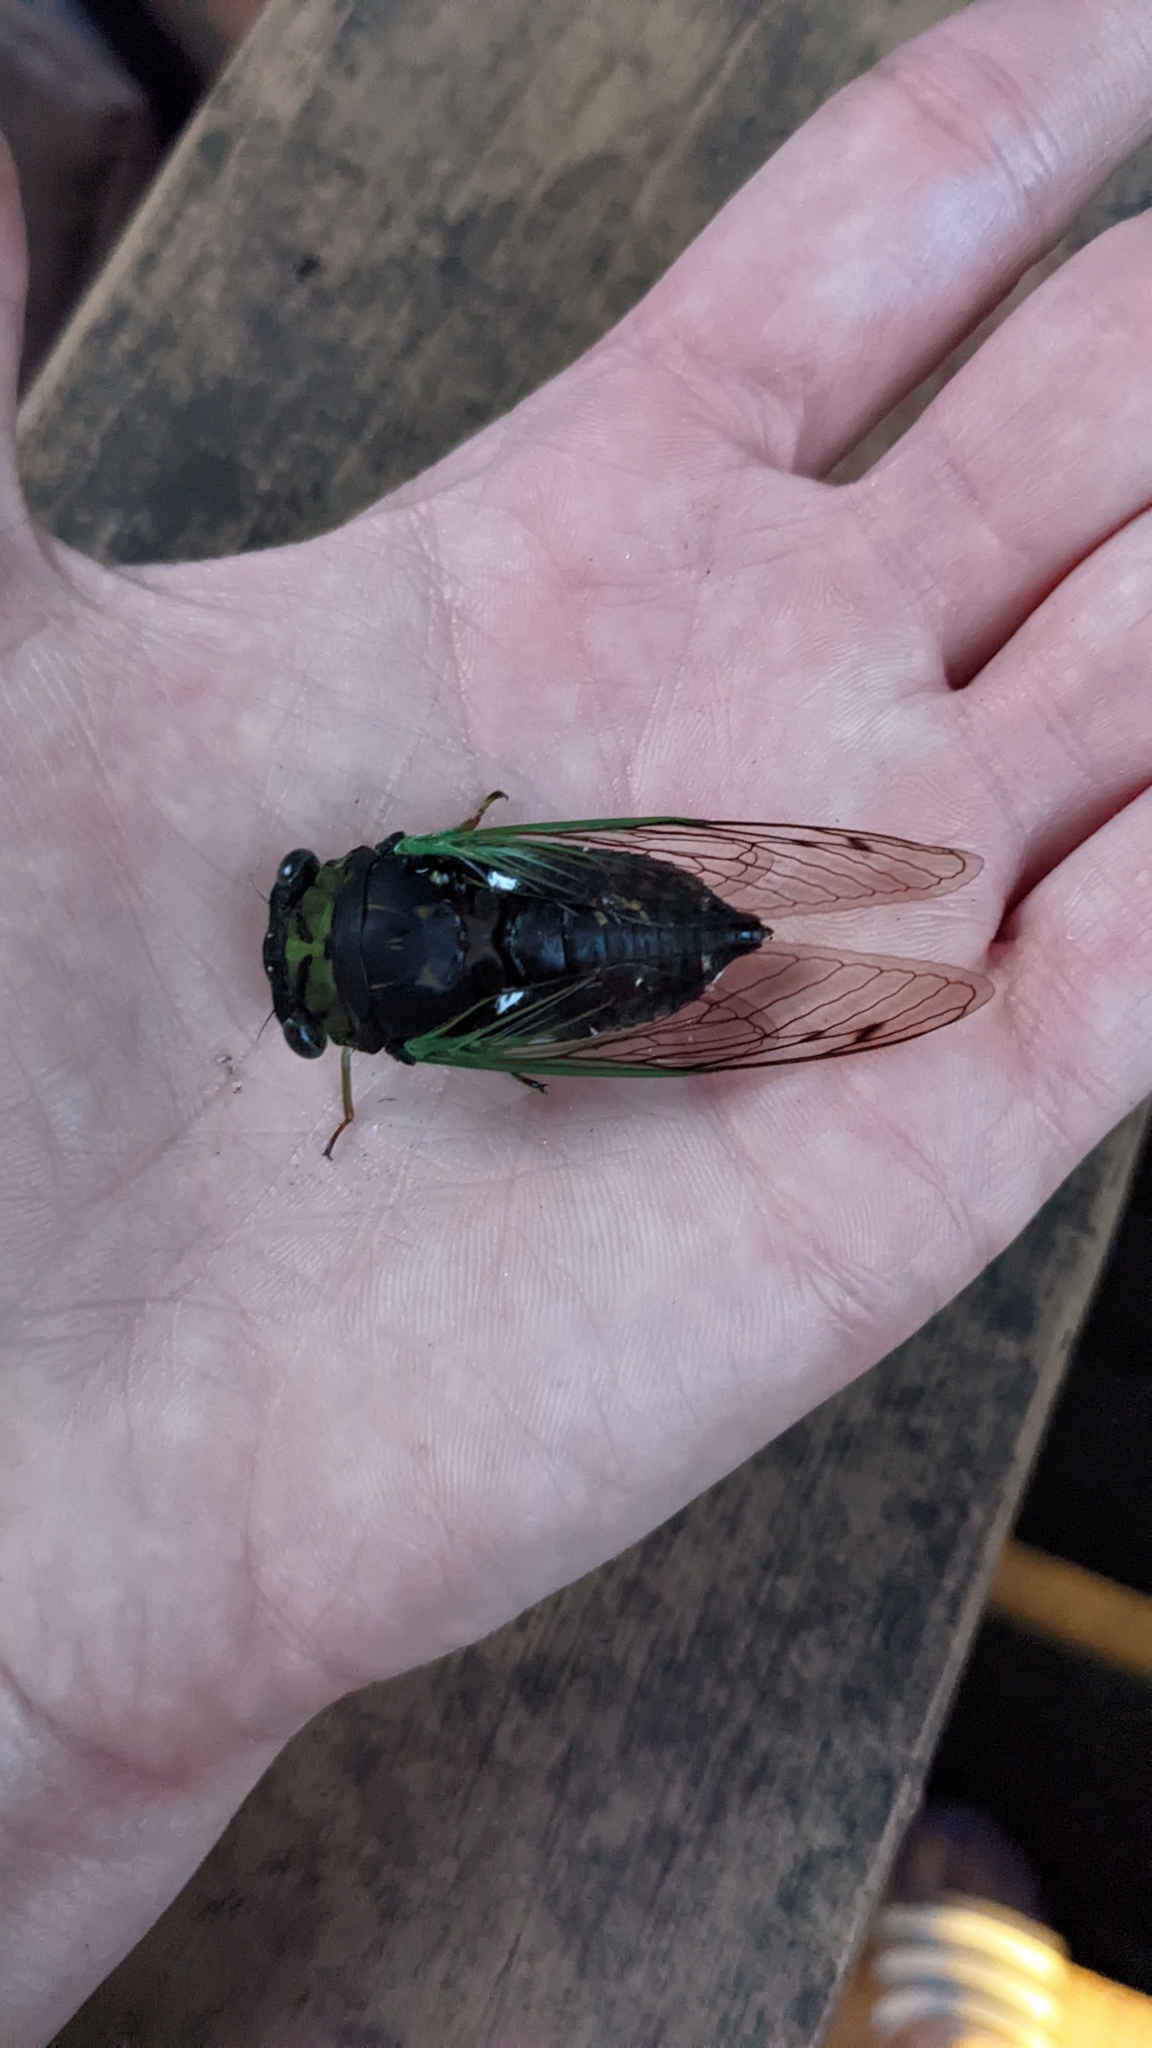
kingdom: Animalia
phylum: Arthropoda
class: Insecta
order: Hemiptera
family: Cicadidae
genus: Neotibicen
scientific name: Neotibicen tibicen
